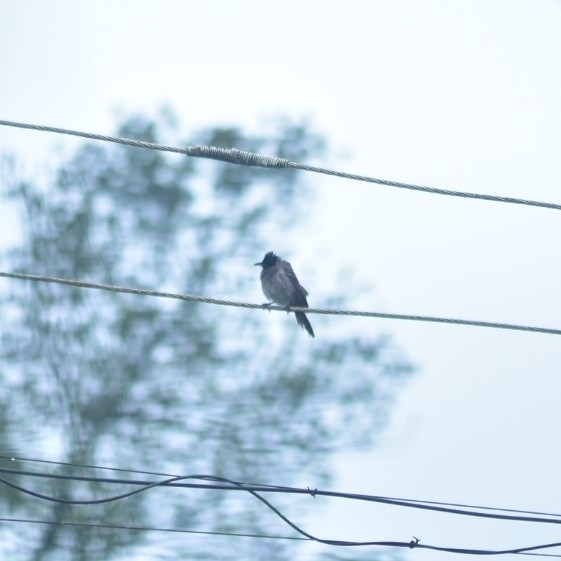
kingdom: Animalia
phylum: Chordata
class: Aves
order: Passeriformes
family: Pycnonotidae
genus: Pycnonotus
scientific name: Pycnonotus cafer
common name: Red-vented bulbul
